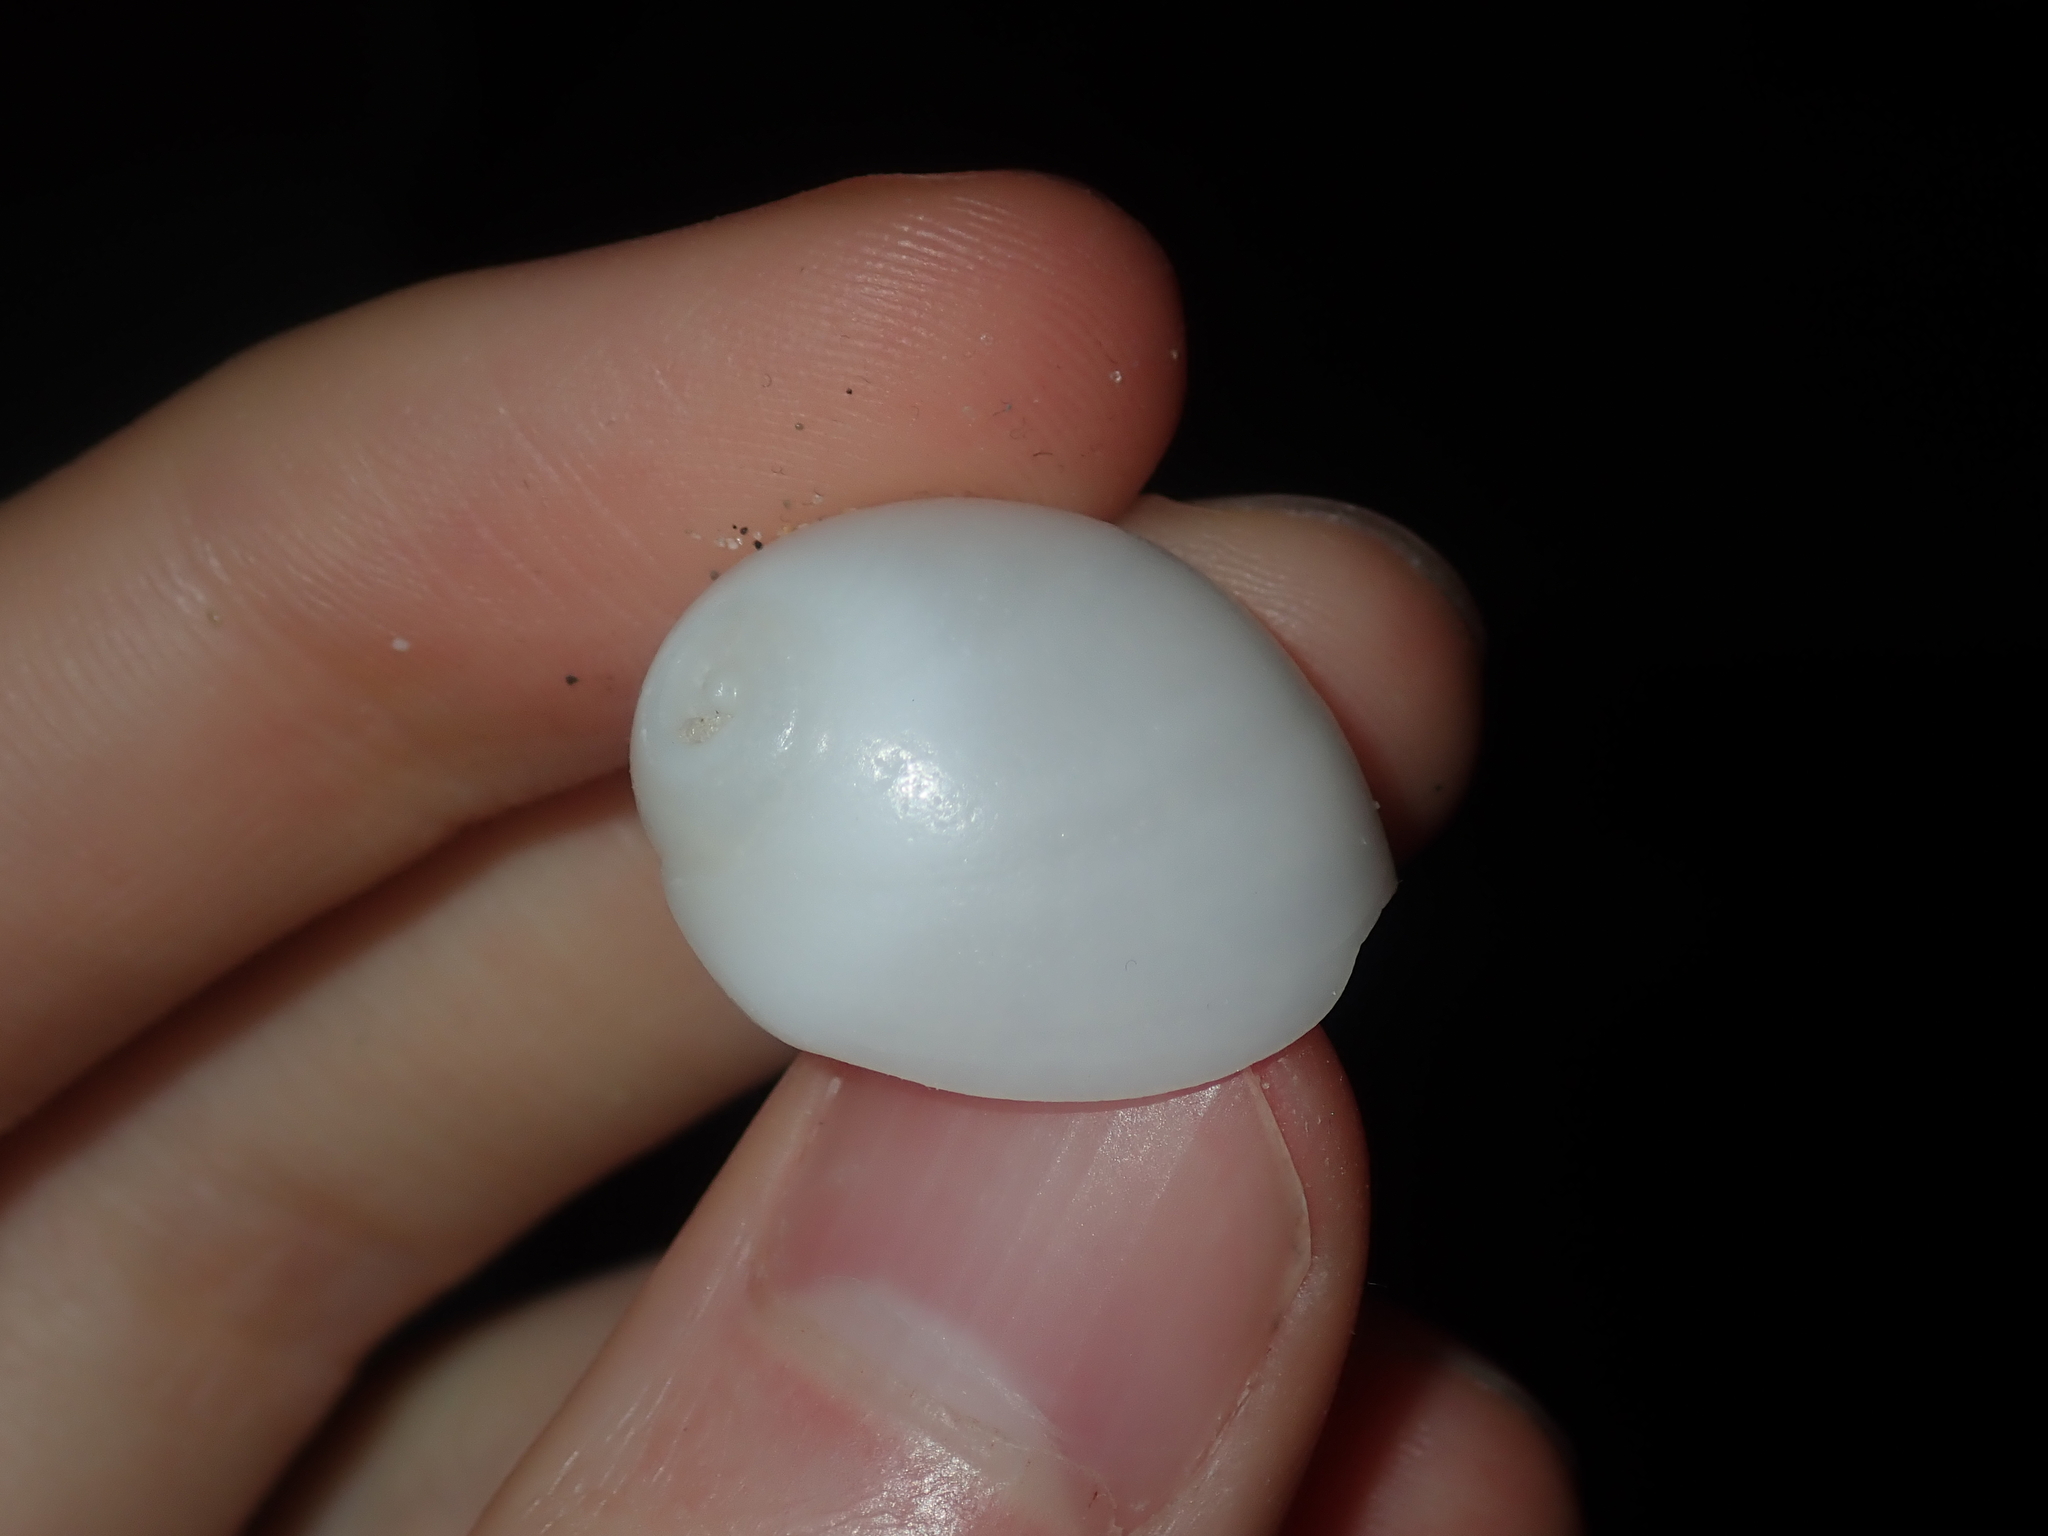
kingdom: Animalia
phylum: Mollusca
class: Gastropoda
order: Littorinimorpha
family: Naticidae
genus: Polinices
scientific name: Polinices mammilla
